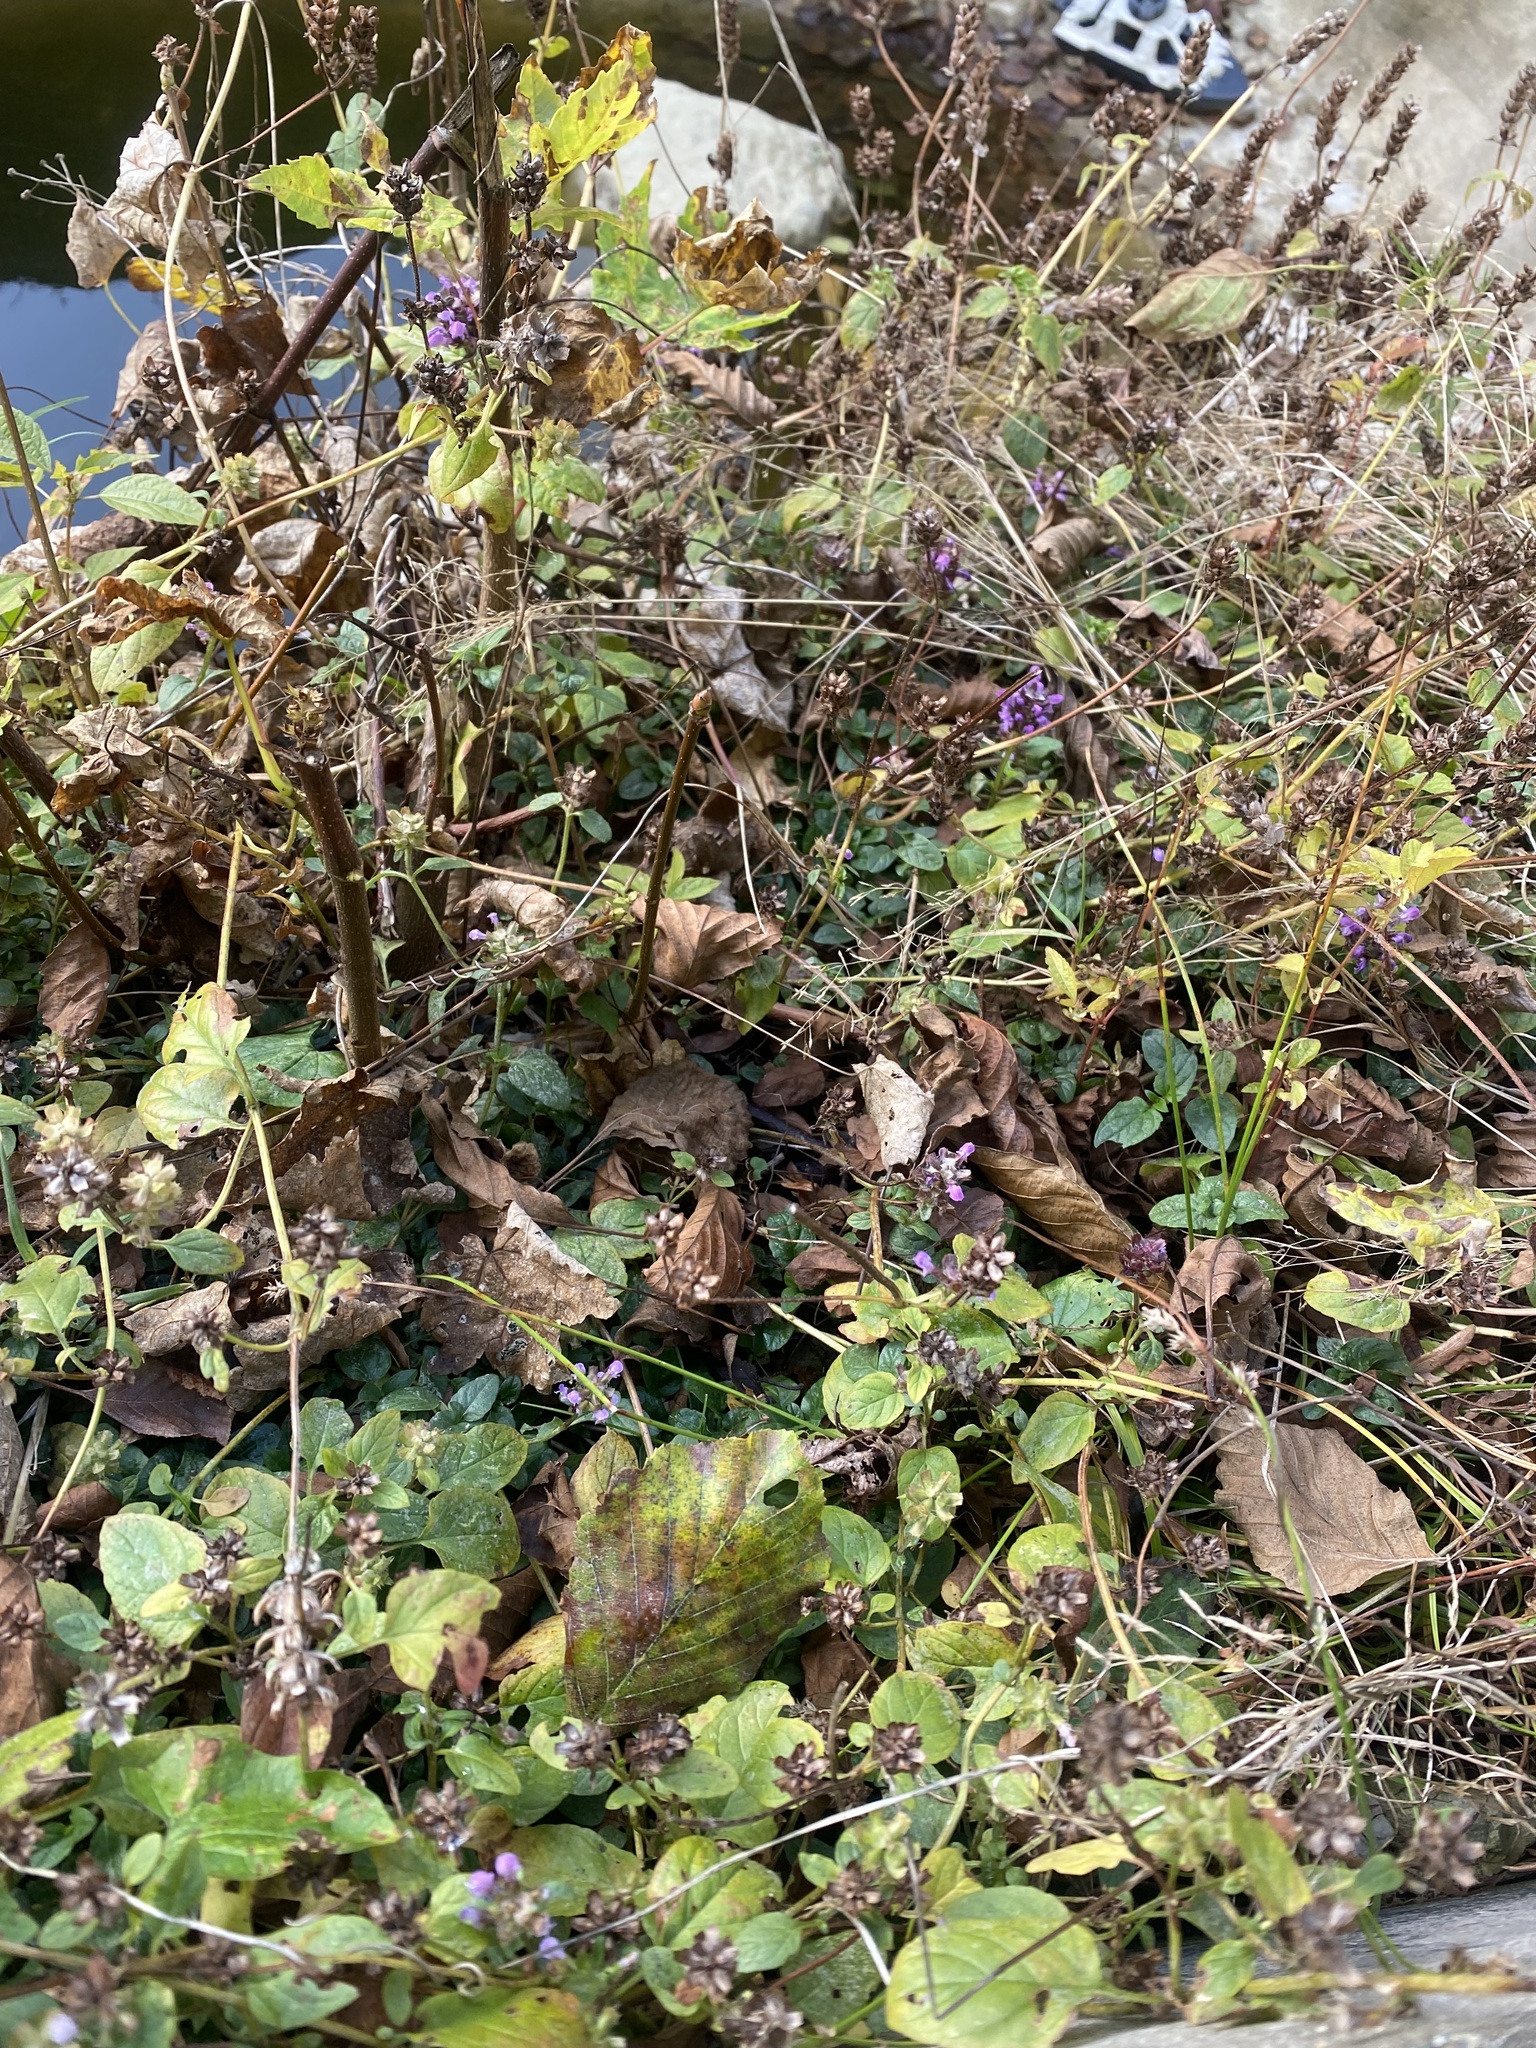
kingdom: Plantae
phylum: Tracheophyta
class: Magnoliopsida
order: Lamiales
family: Lamiaceae
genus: Prunella
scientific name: Prunella vulgaris
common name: Heal-all
